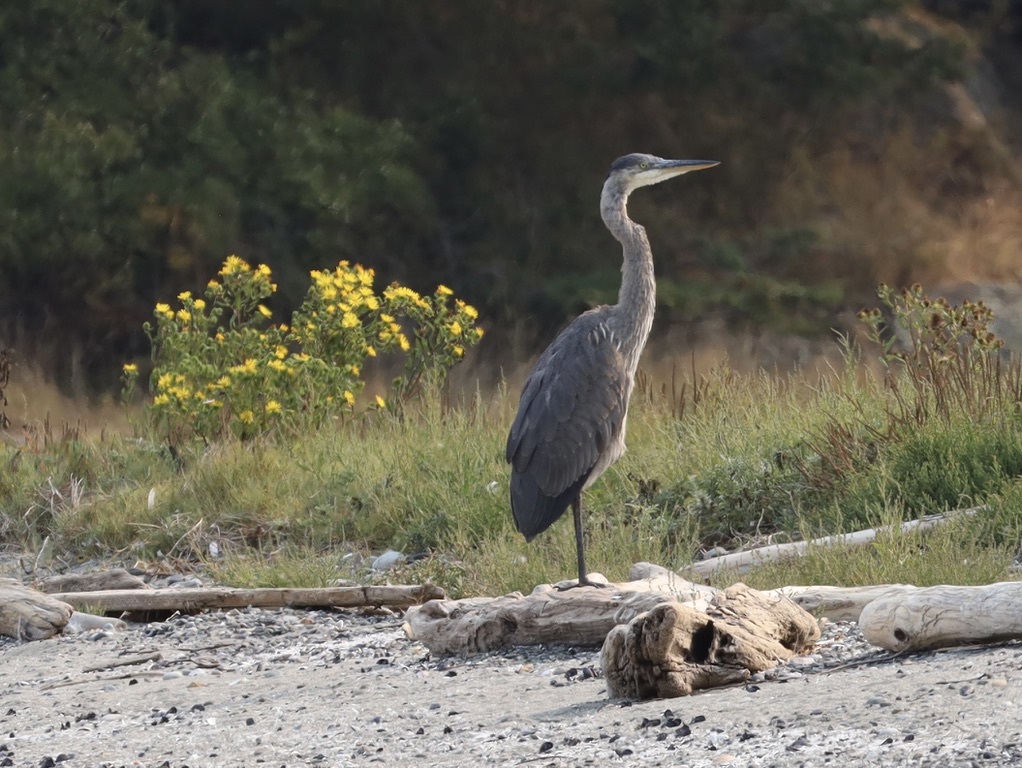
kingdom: Animalia
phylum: Chordata
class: Aves
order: Pelecaniformes
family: Ardeidae
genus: Ardea
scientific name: Ardea herodias
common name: Great blue heron
